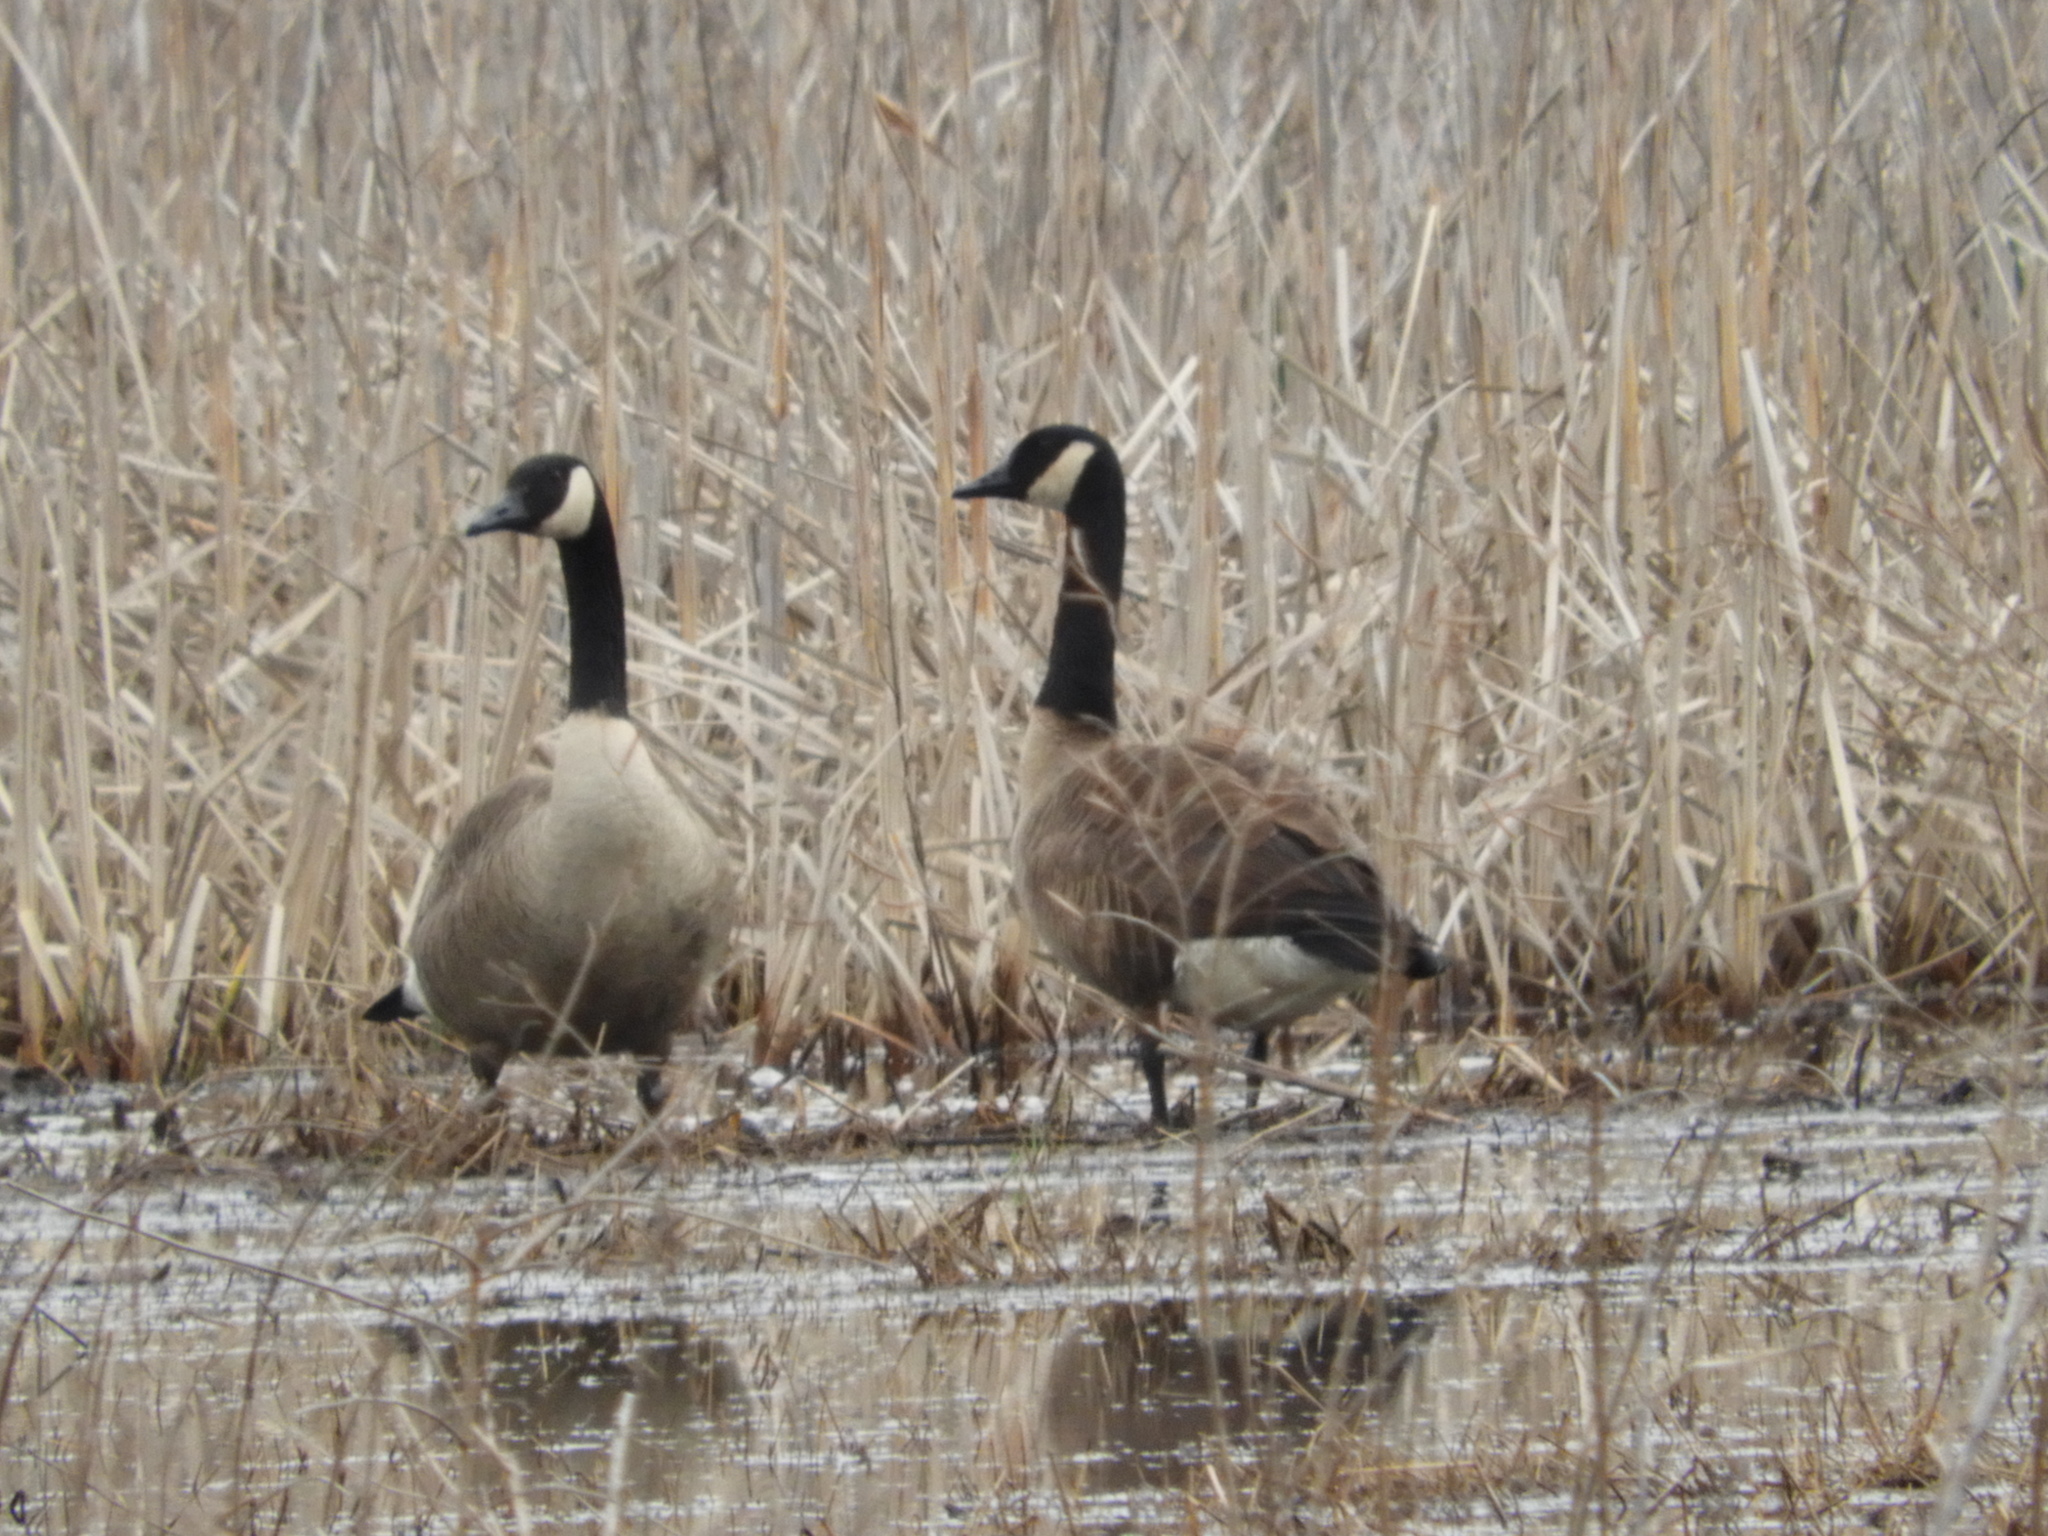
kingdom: Animalia
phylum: Chordata
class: Aves
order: Anseriformes
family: Anatidae
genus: Branta
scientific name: Branta canadensis
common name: Canada goose
